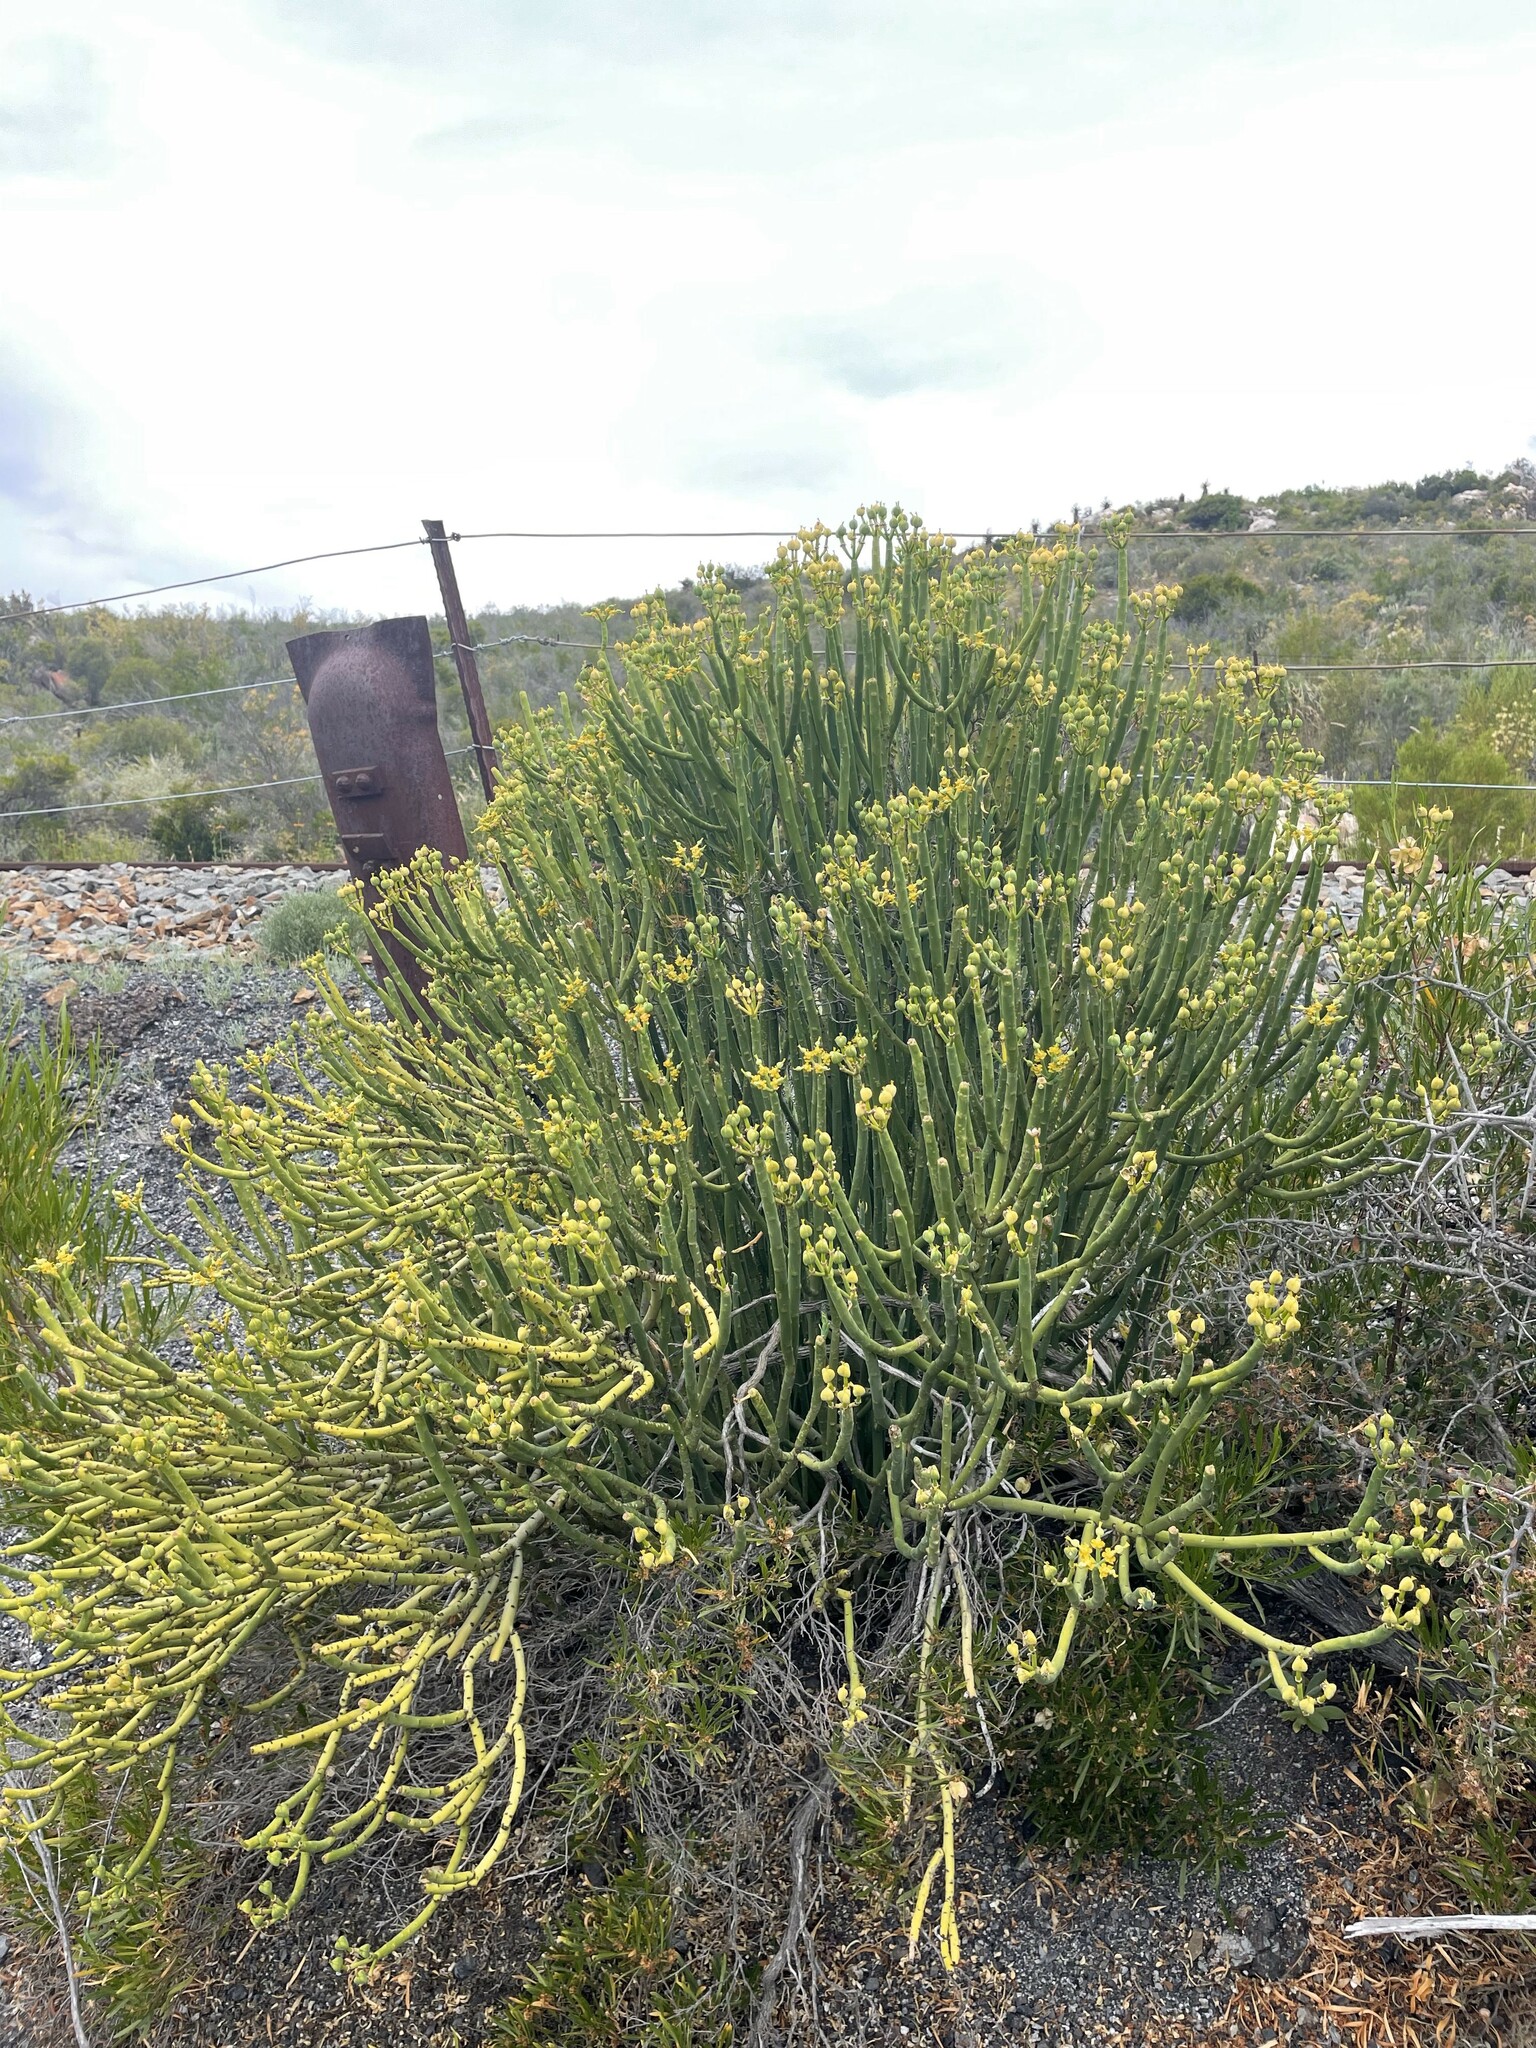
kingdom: Plantae
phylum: Tracheophyta
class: Magnoliopsida
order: Malpighiales
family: Euphorbiaceae
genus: Euphorbia
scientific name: Euphorbia mauritanica
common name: Jackal's-food
